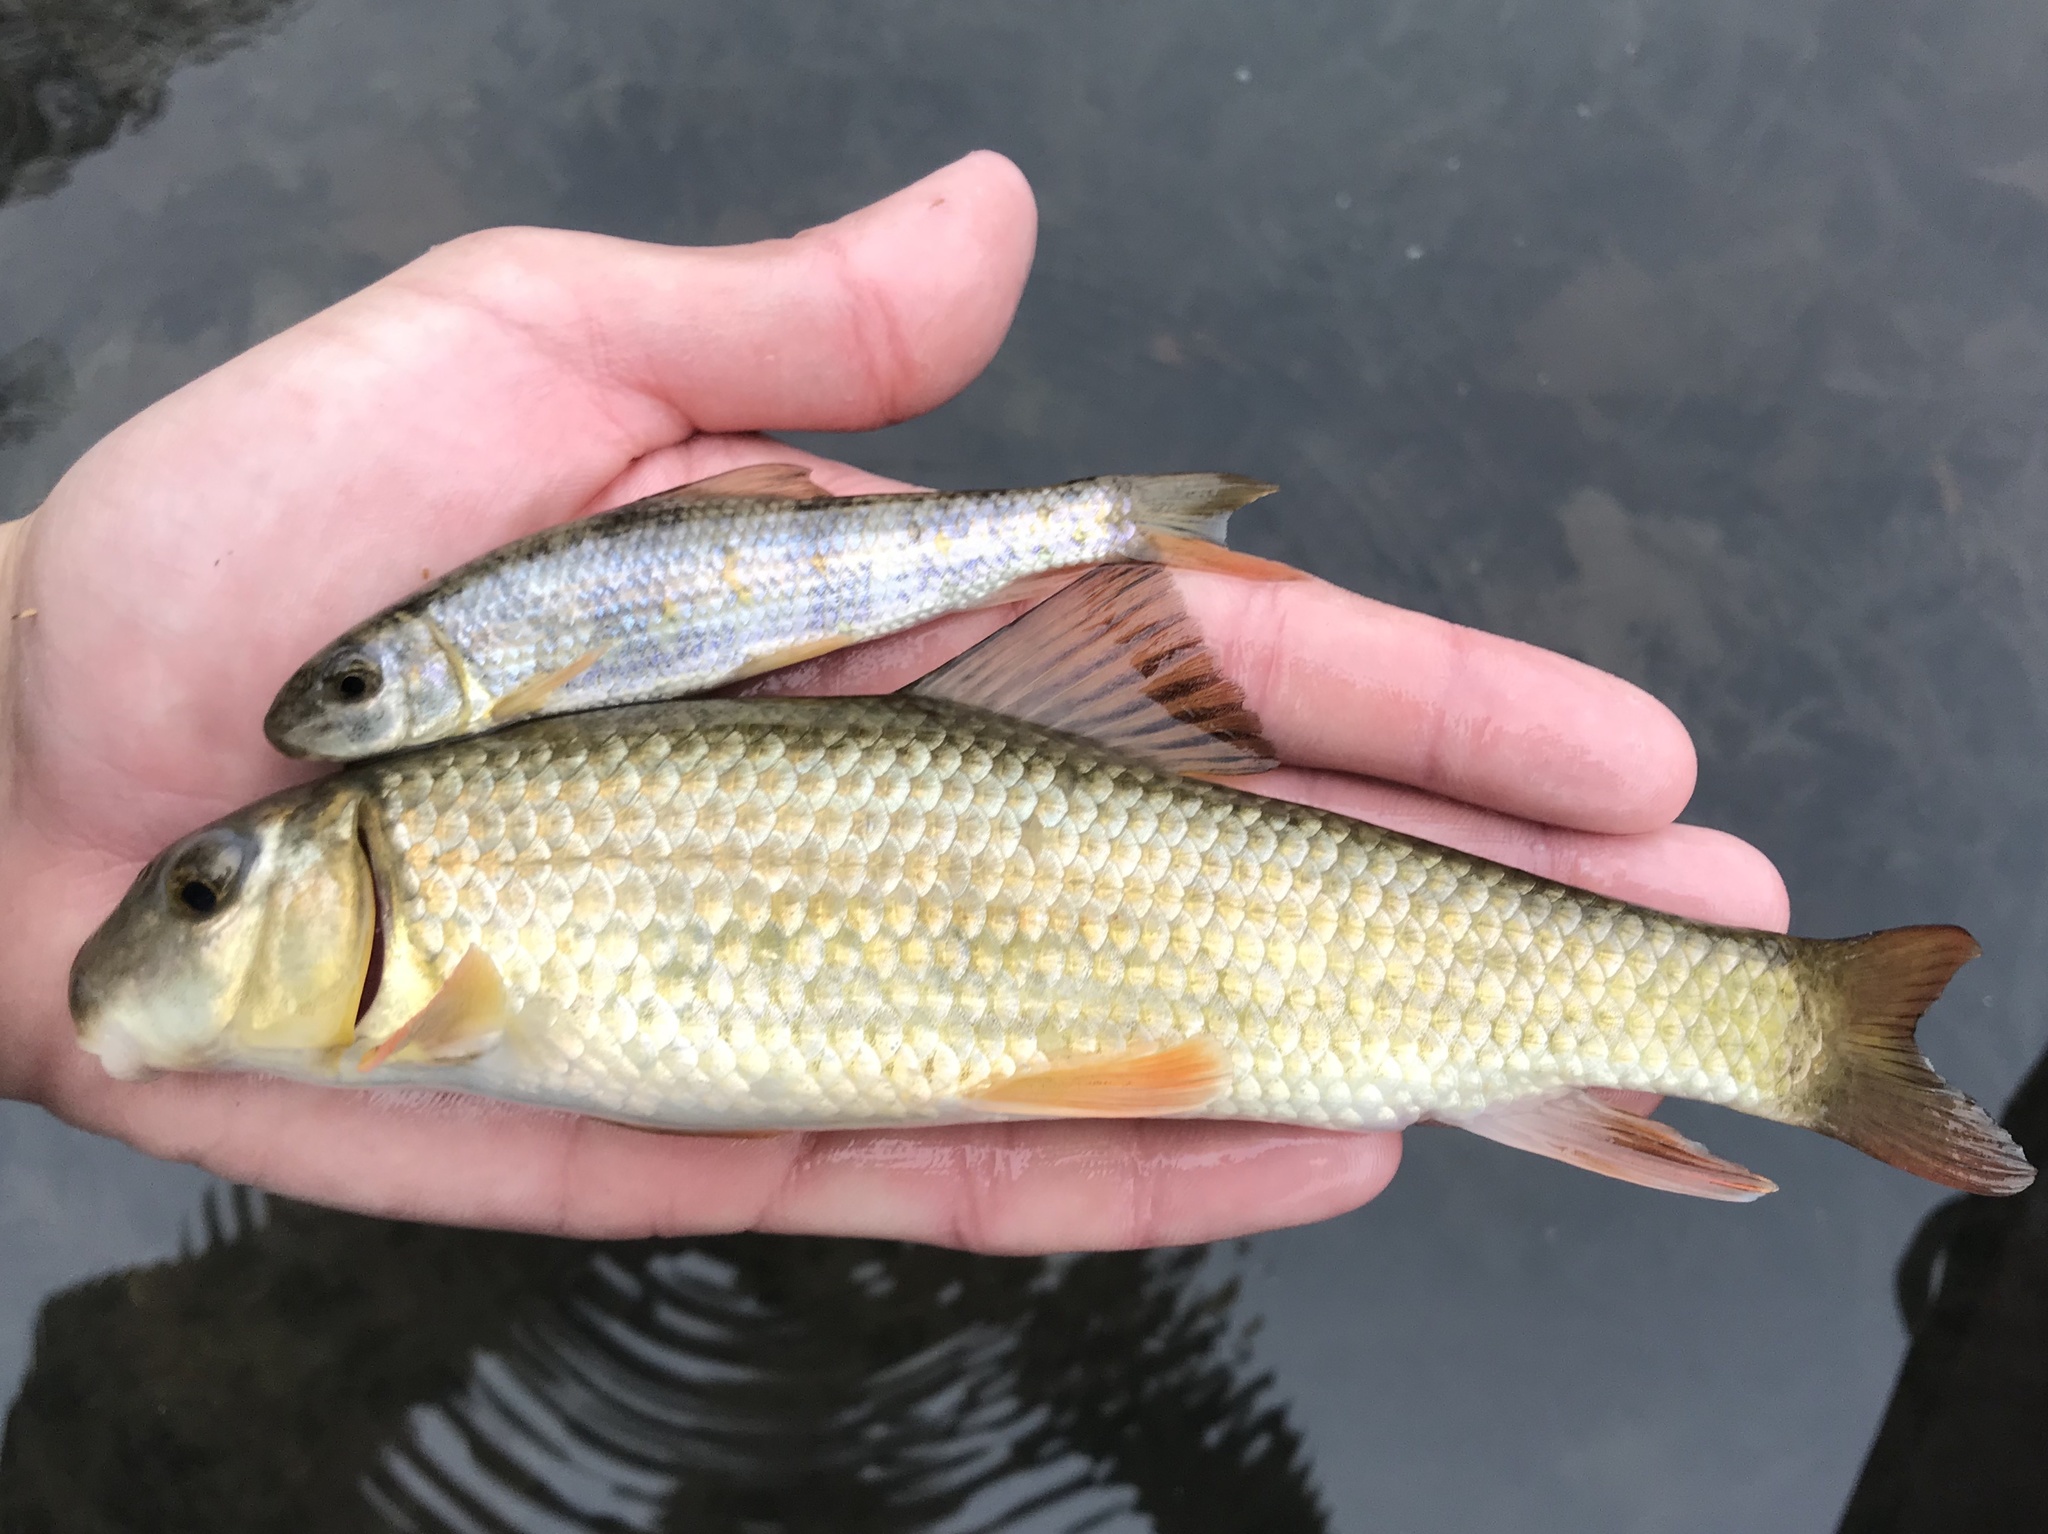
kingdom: Animalia
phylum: Chordata
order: Cypriniformes
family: Catostomidae
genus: Moxostoma
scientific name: Moxostoma congestum
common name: Gray redhorse
